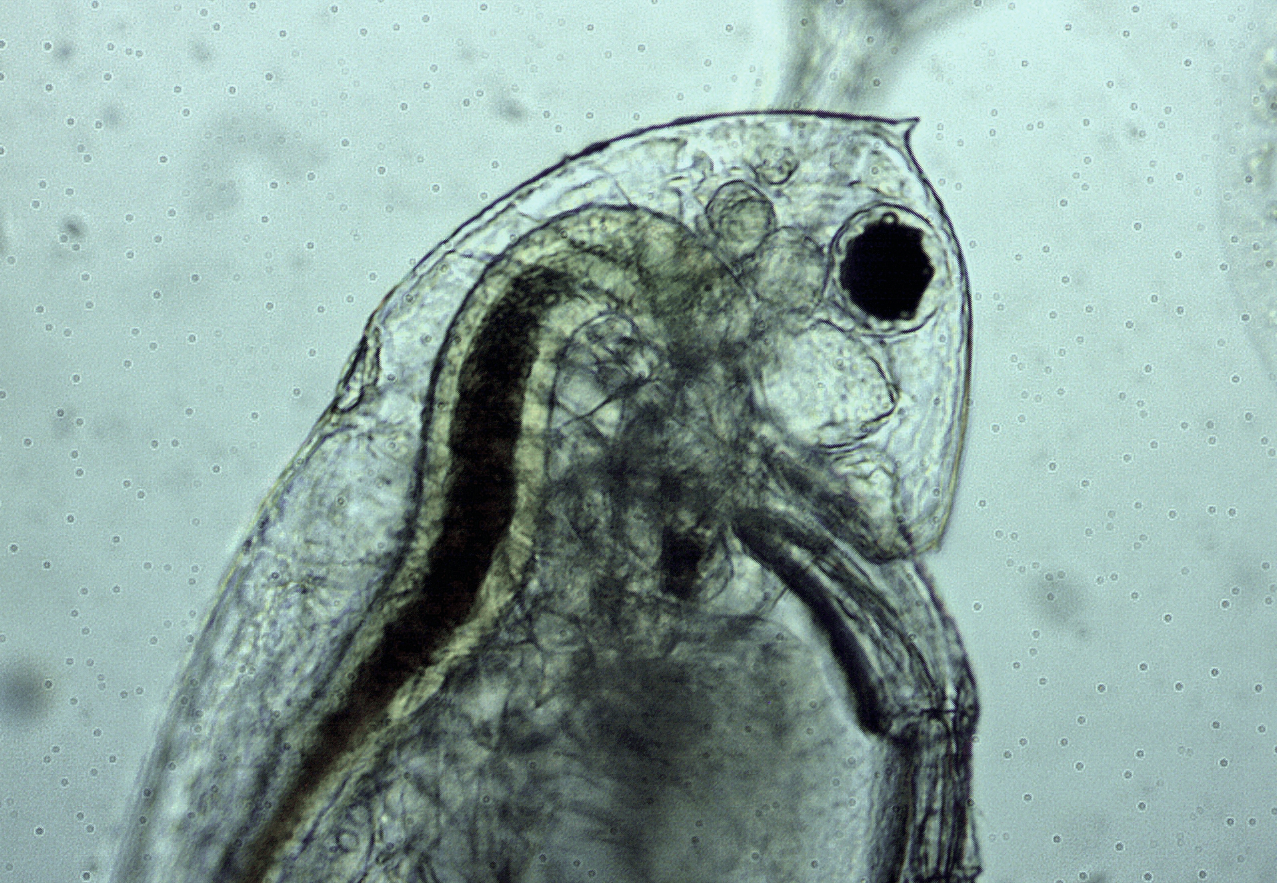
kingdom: Animalia
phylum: Arthropoda
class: Branchiopoda
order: Diplostraca
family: Daphniidae
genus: Daphnia
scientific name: Daphnia ambigua
